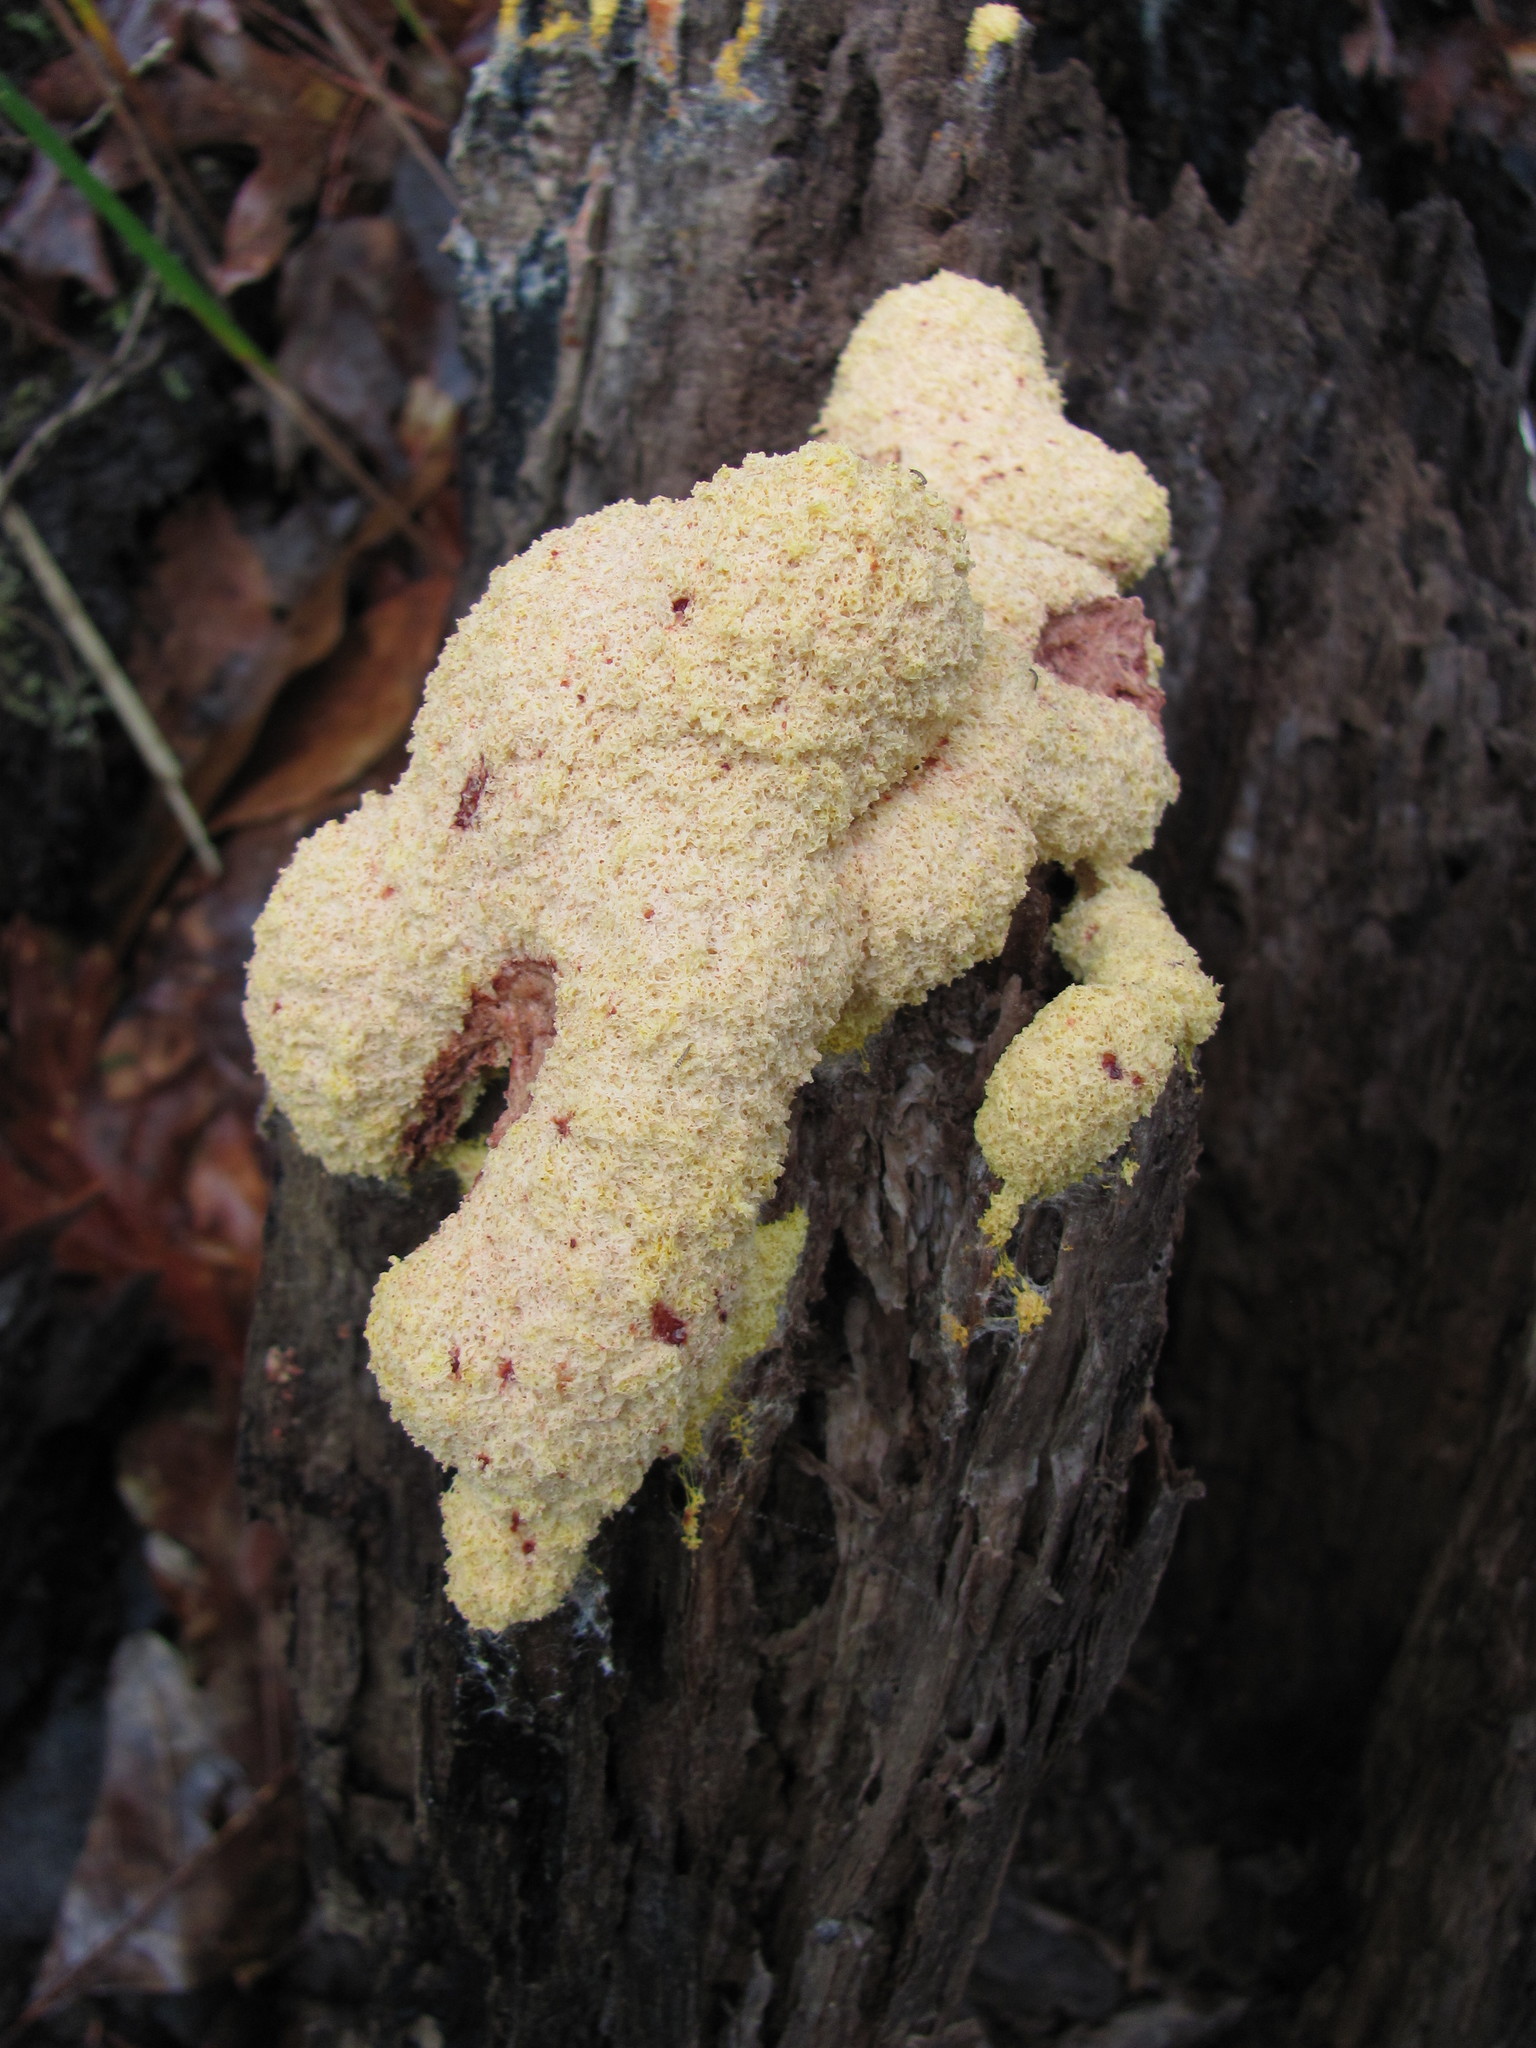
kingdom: Protozoa
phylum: Mycetozoa
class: Myxomycetes
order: Physarales
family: Physaraceae
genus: Fuligo
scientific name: Fuligo septica
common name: Dog vomit slime mold
